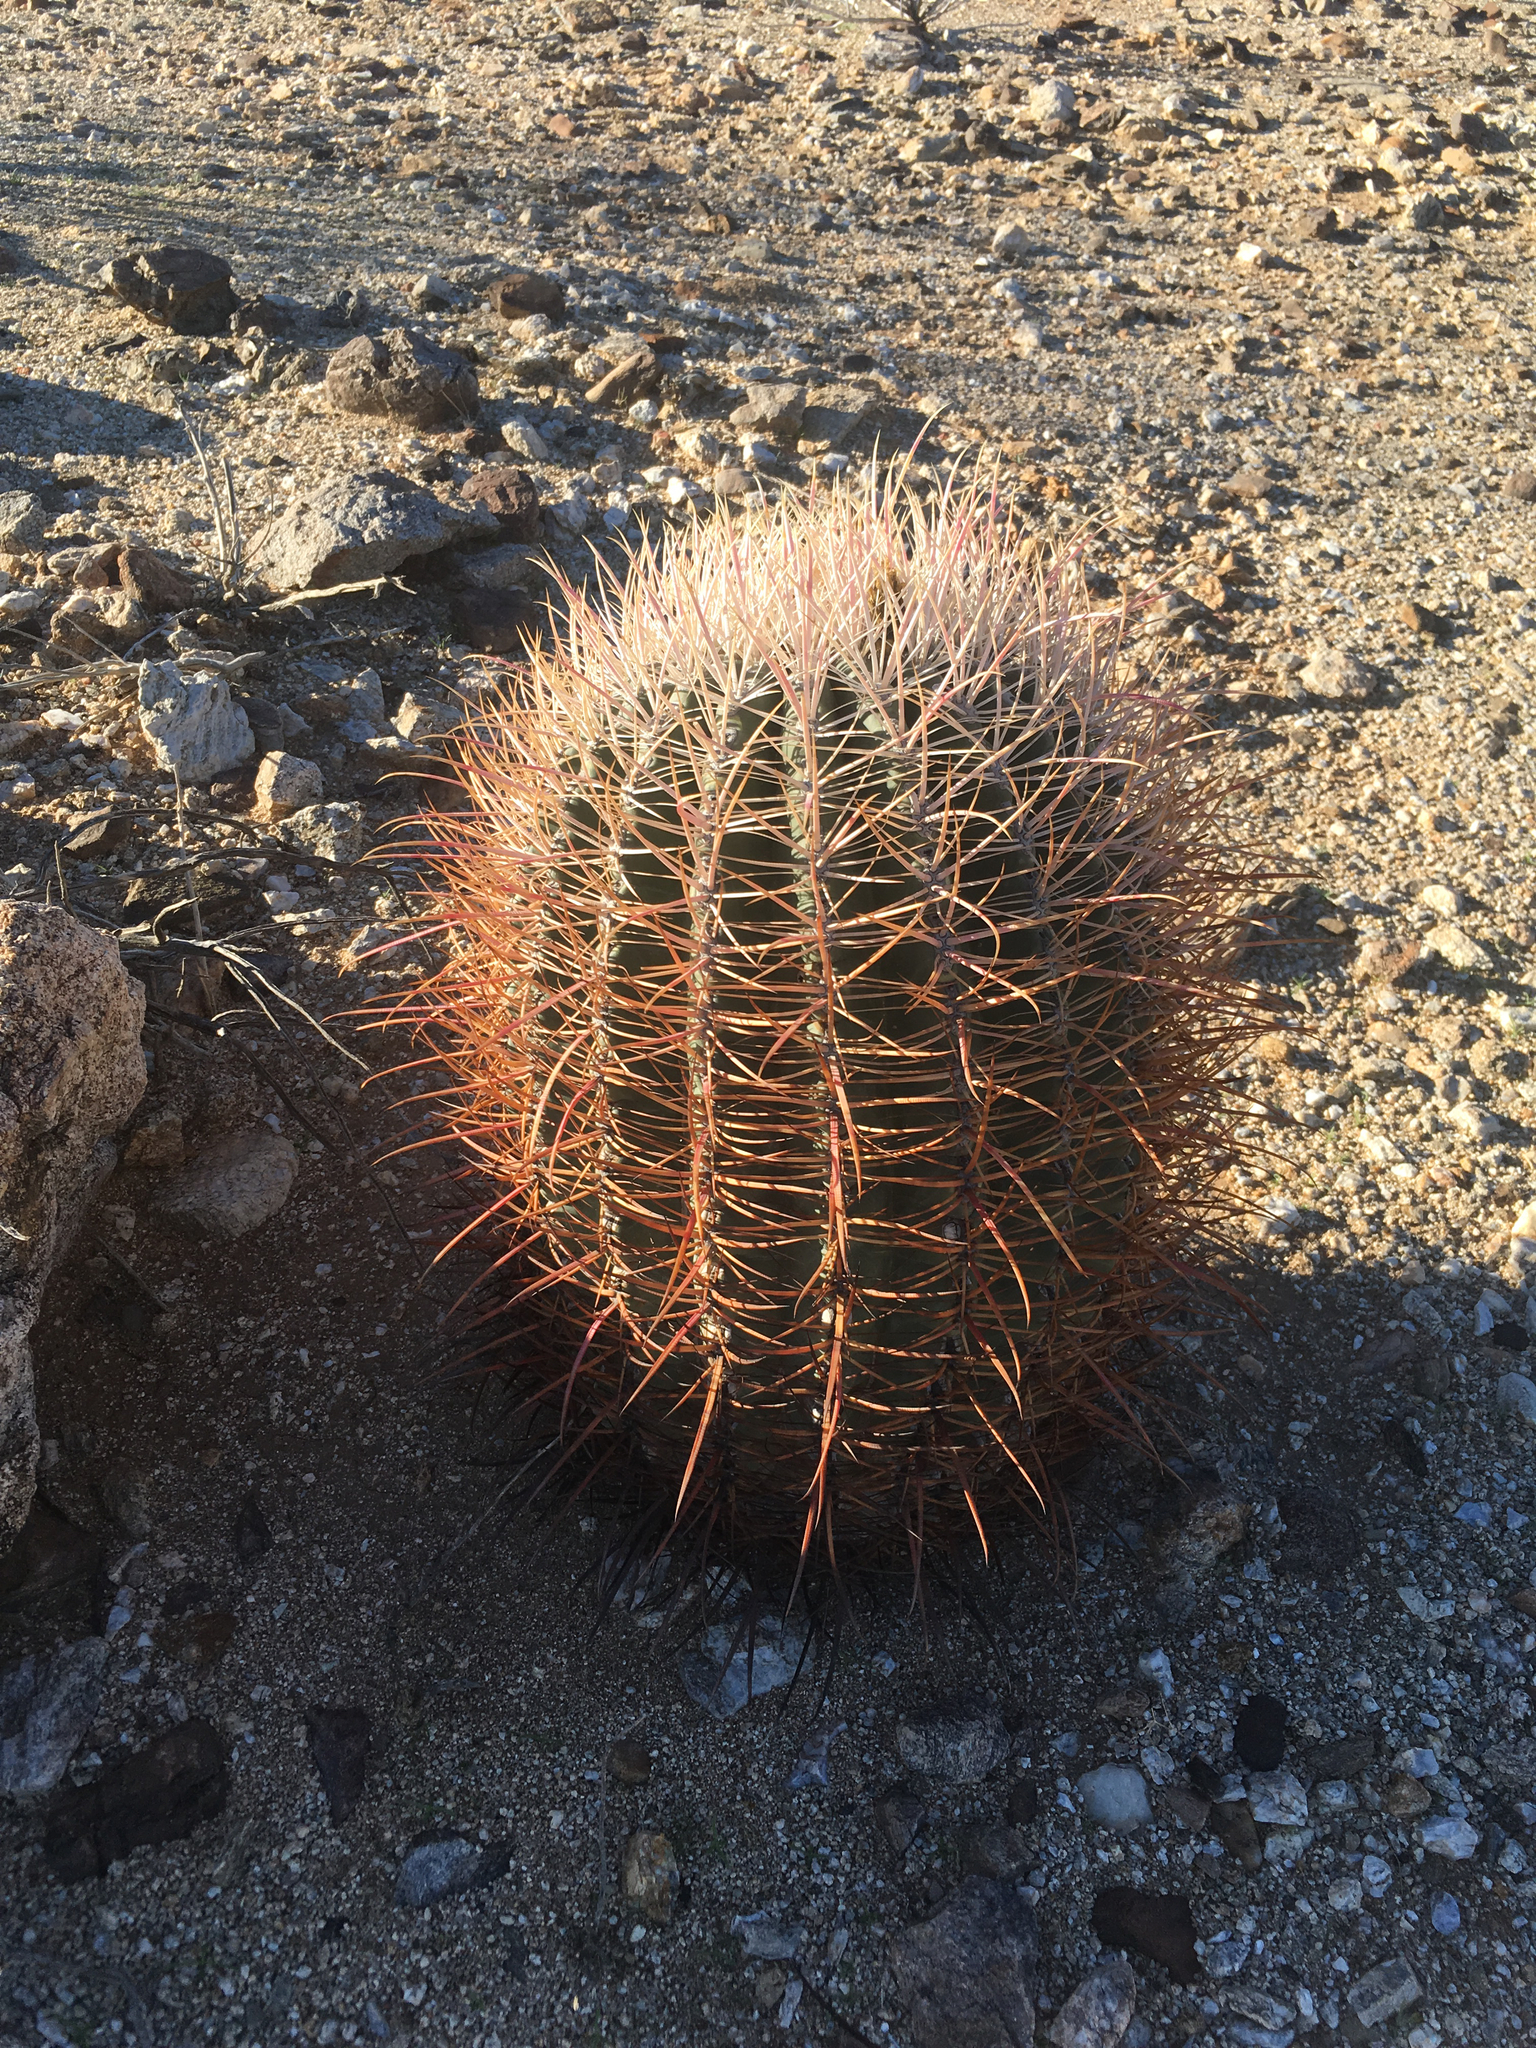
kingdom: Plantae
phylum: Tracheophyta
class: Magnoliopsida
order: Caryophyllales
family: Cactaceae
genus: Ferocactus
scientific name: Ferocactus cylindraceus
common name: California barrel cactus
